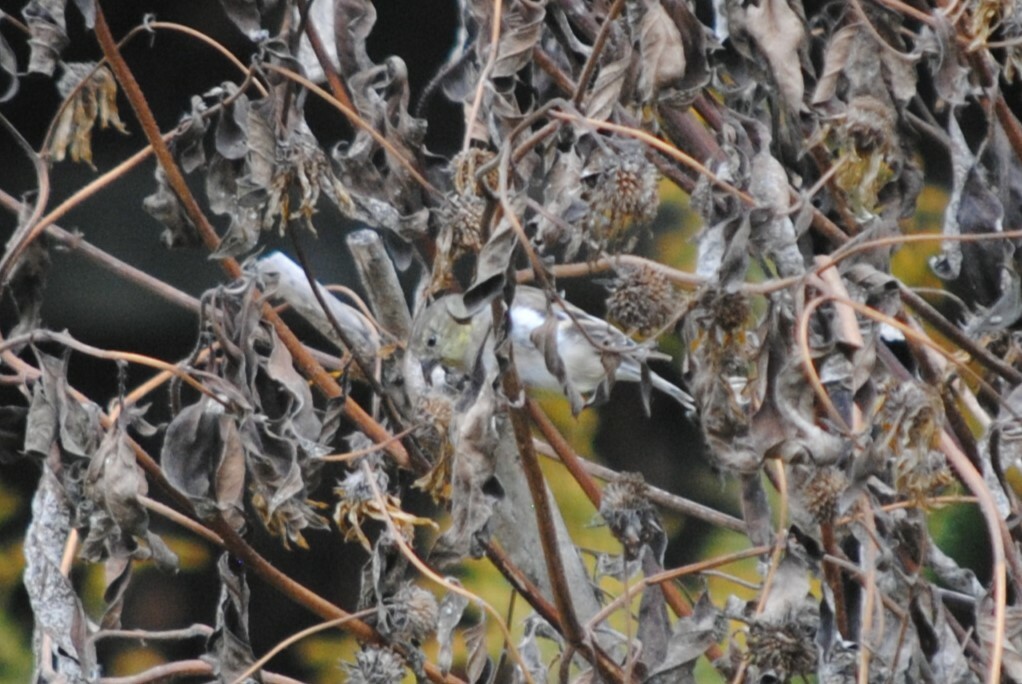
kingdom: Animalia
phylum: Chordata
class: Aves
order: Passeriformes
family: Fringillidae
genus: Spinus
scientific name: Spinus tristis
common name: American goldfinch
